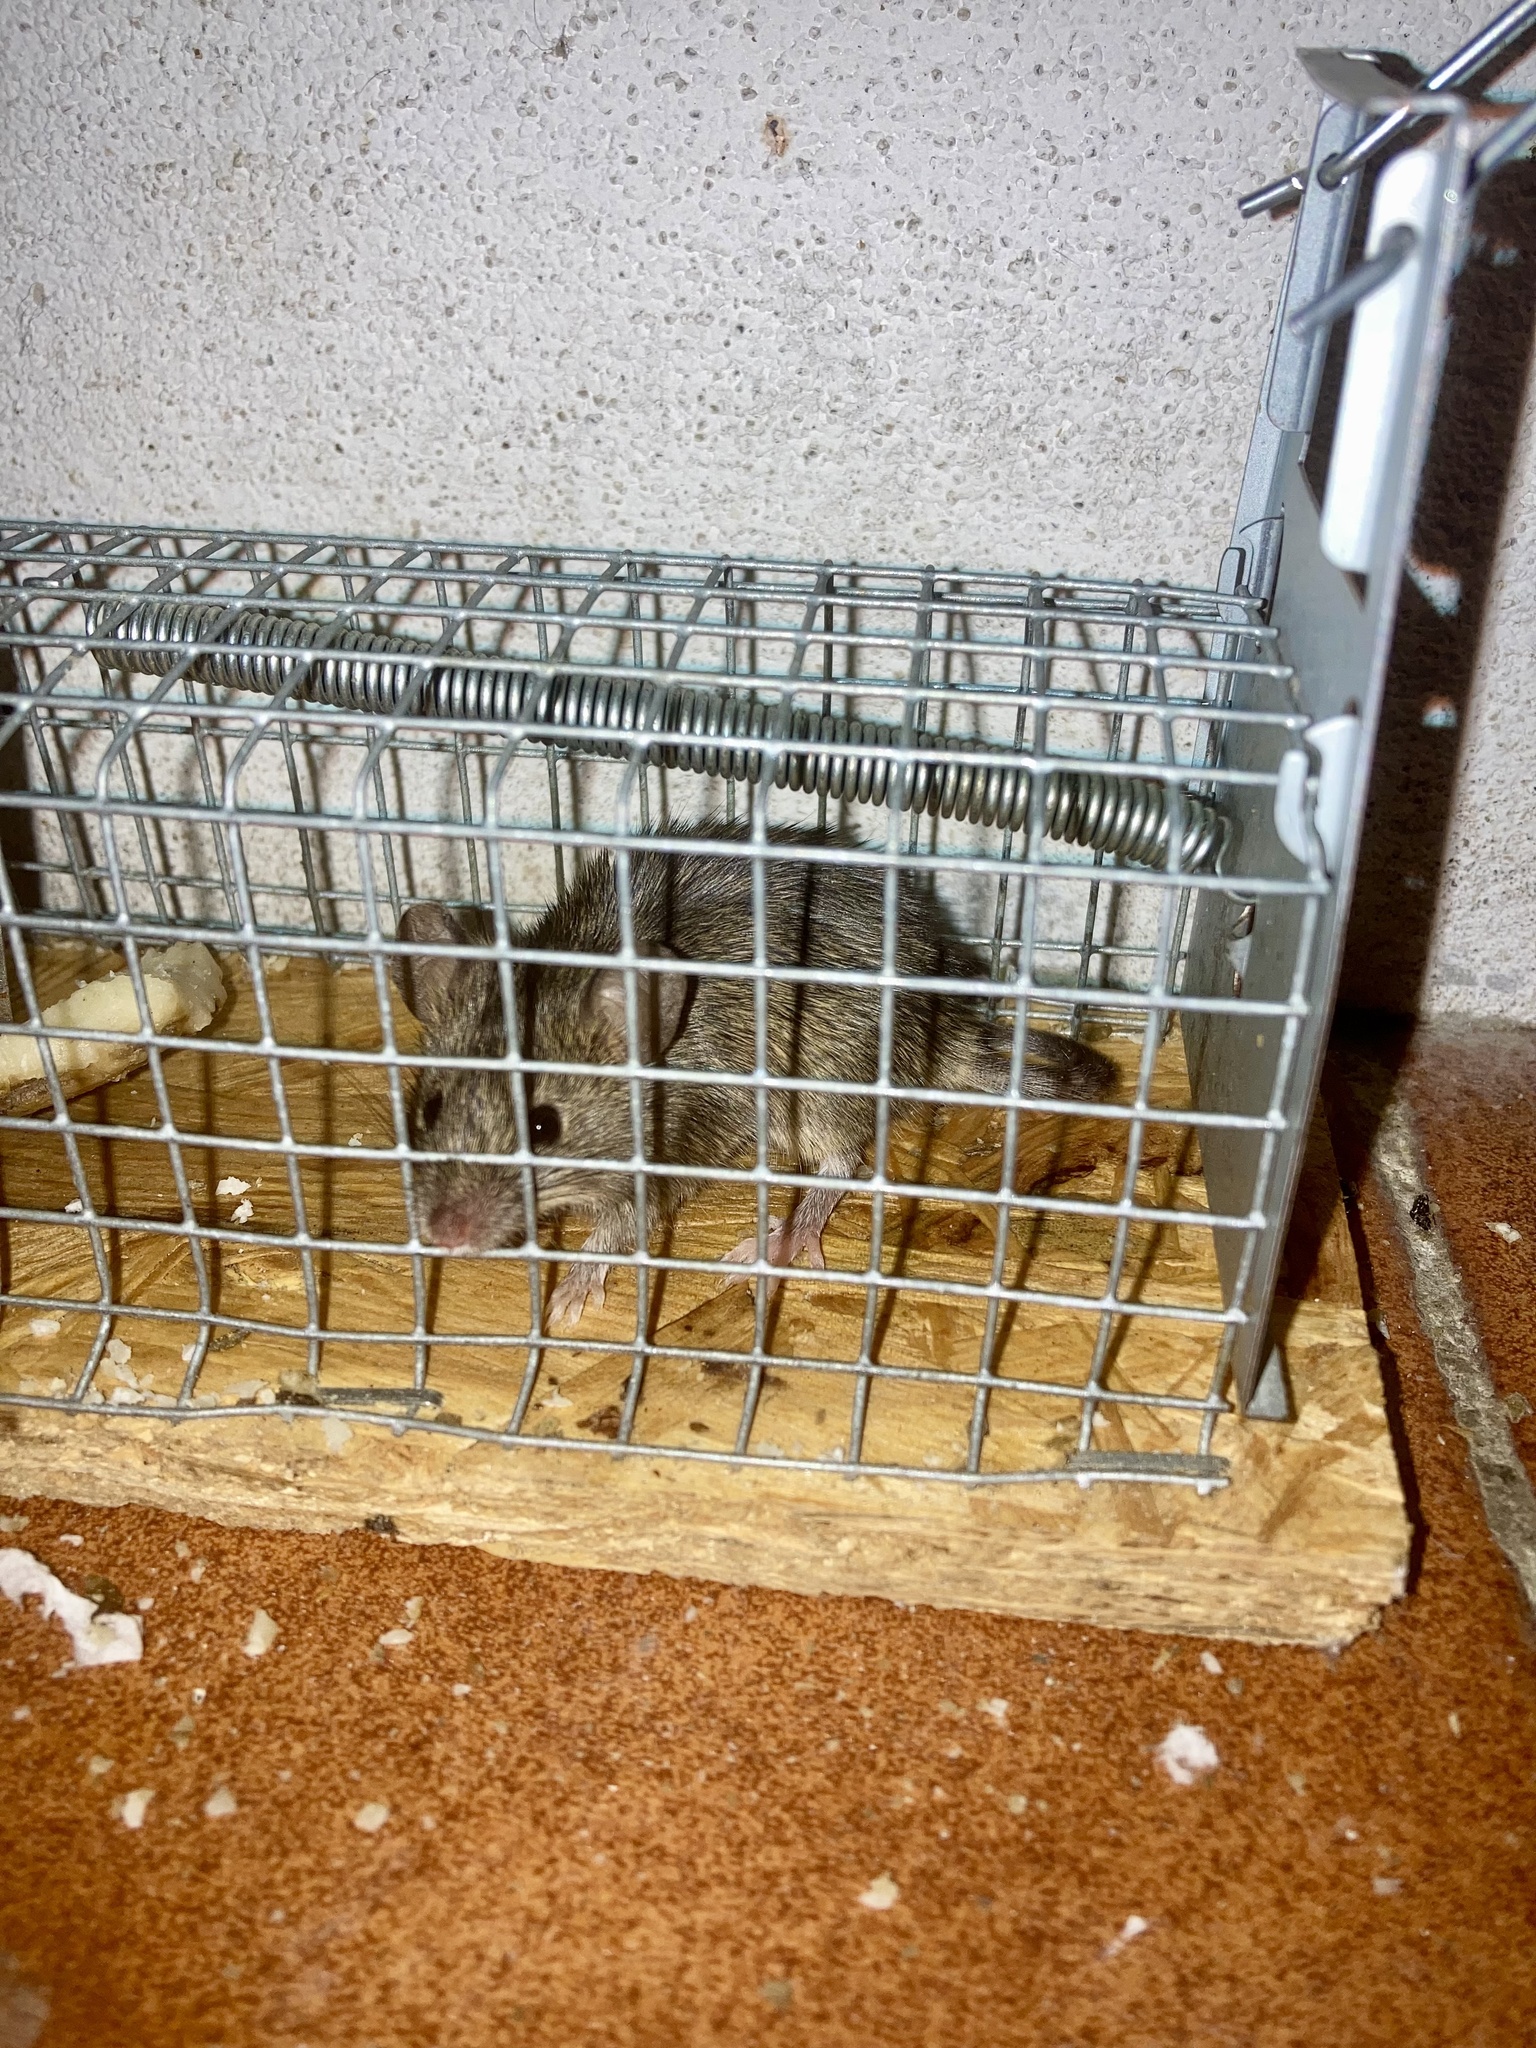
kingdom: Animalia
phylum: Chordata
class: Mammalia
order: Rodentia
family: Muridae
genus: Mus
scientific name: Mus musculus
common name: House mouse
